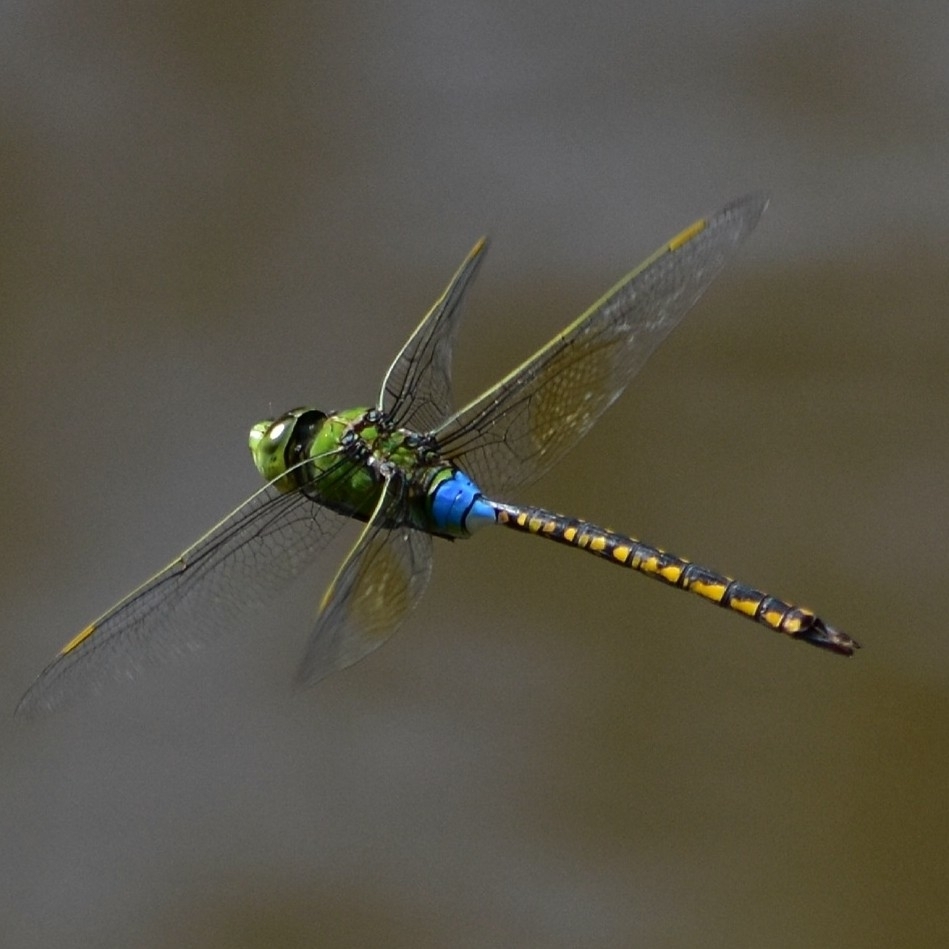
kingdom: Animalia
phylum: Arthropoda
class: Insecta
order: Odonata
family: Aeshnidae
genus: Anax
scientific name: Anax indicus
